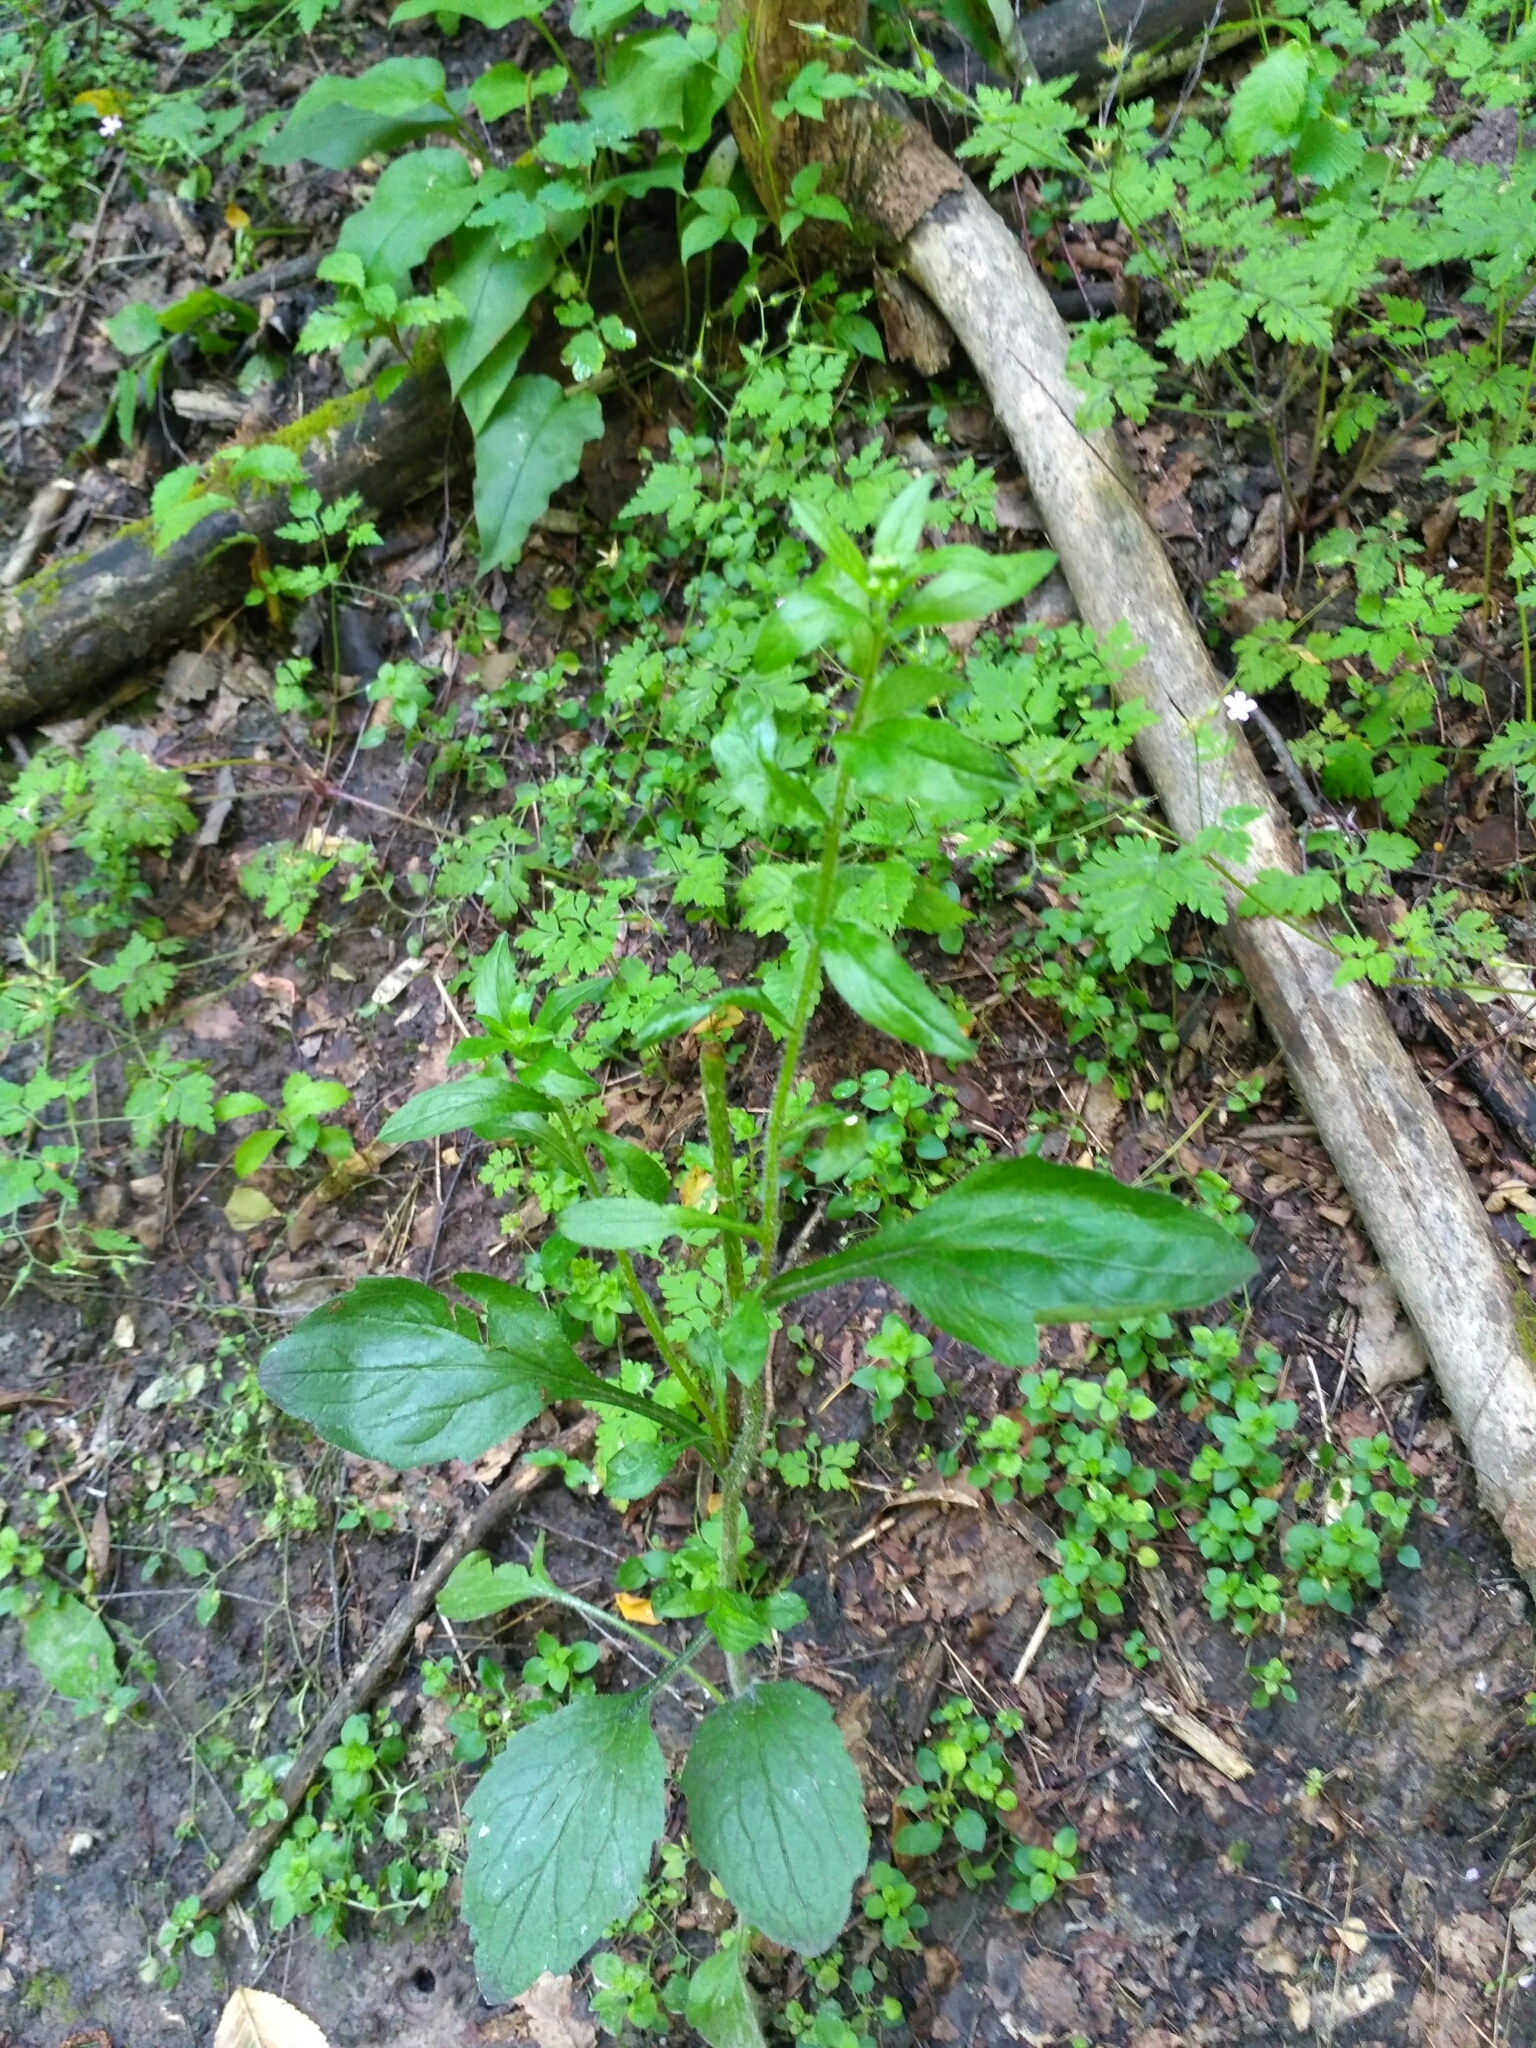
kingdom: Plantae
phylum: Tracheophyta
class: Magnoliopsida
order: Asterales
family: Asteraceae
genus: Erigeron
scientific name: Erigeron annuus
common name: Tall fleabane
